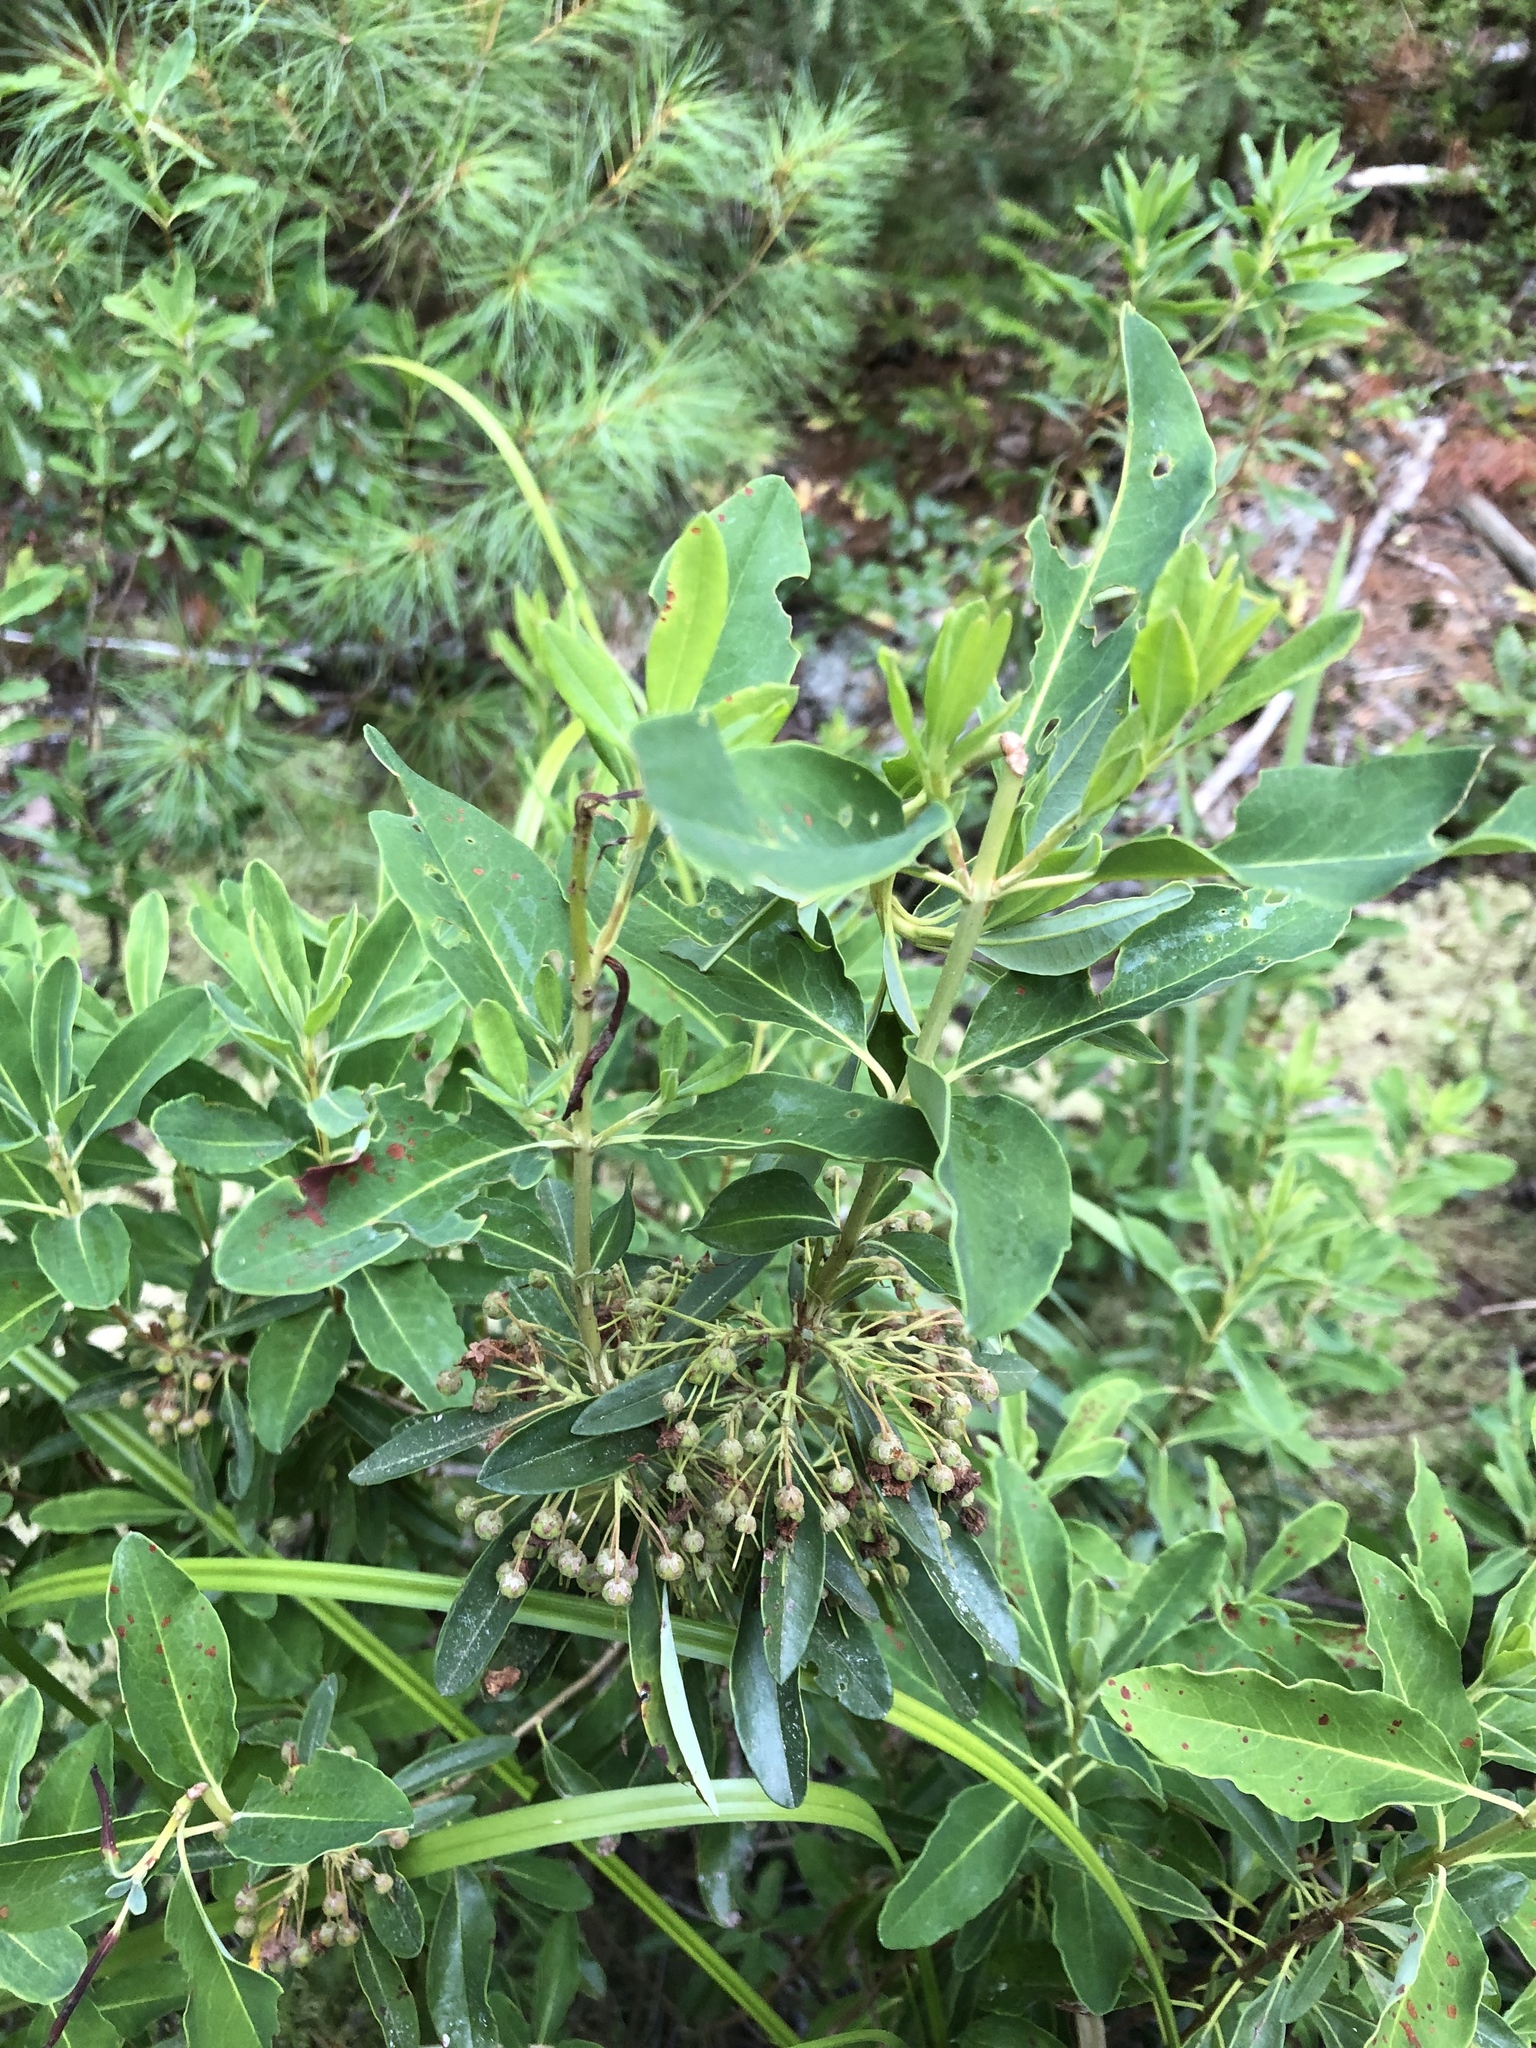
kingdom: Plantae
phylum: Tracheophyta
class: Magnoliopsida
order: Ericales
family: Ericaceae
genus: Kalmia
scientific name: Kalmia angustifolia
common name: Sheep-laurel
